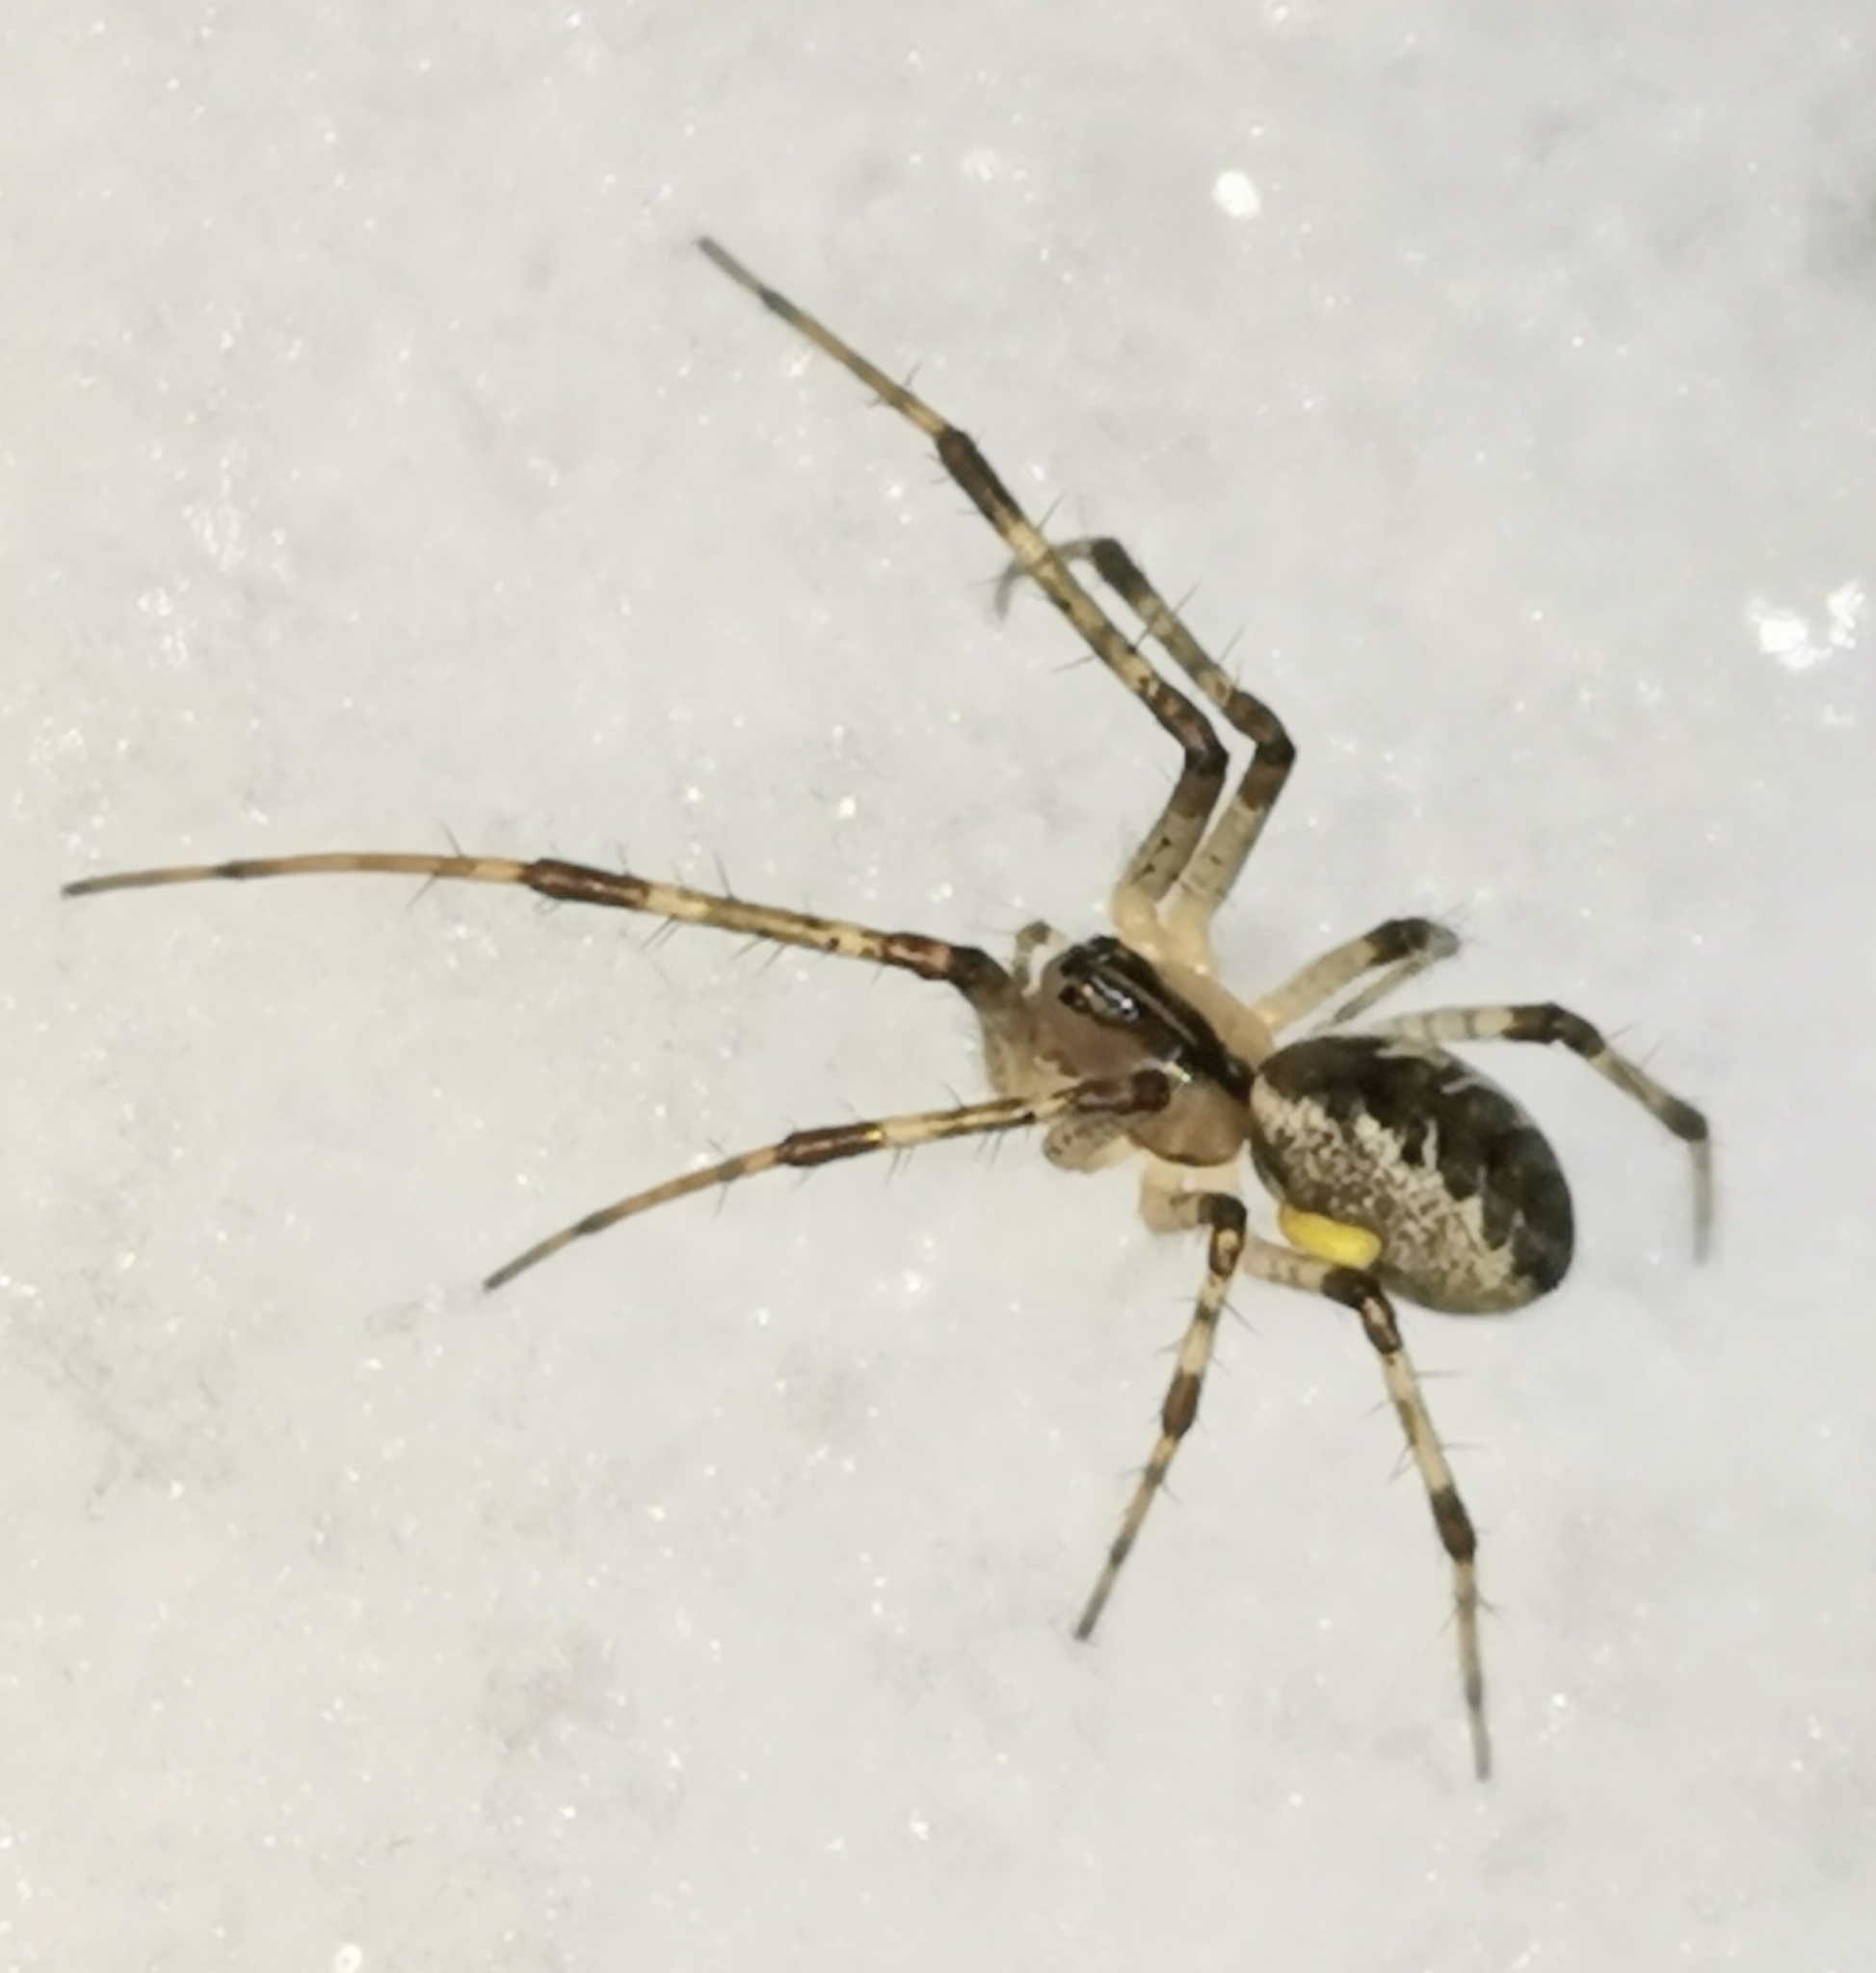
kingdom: Animalia
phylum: Arthropoda
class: Arachnida
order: Araneae
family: Linyphiidae
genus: Pityohyphantes
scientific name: Pityohyphantes phrygianus
